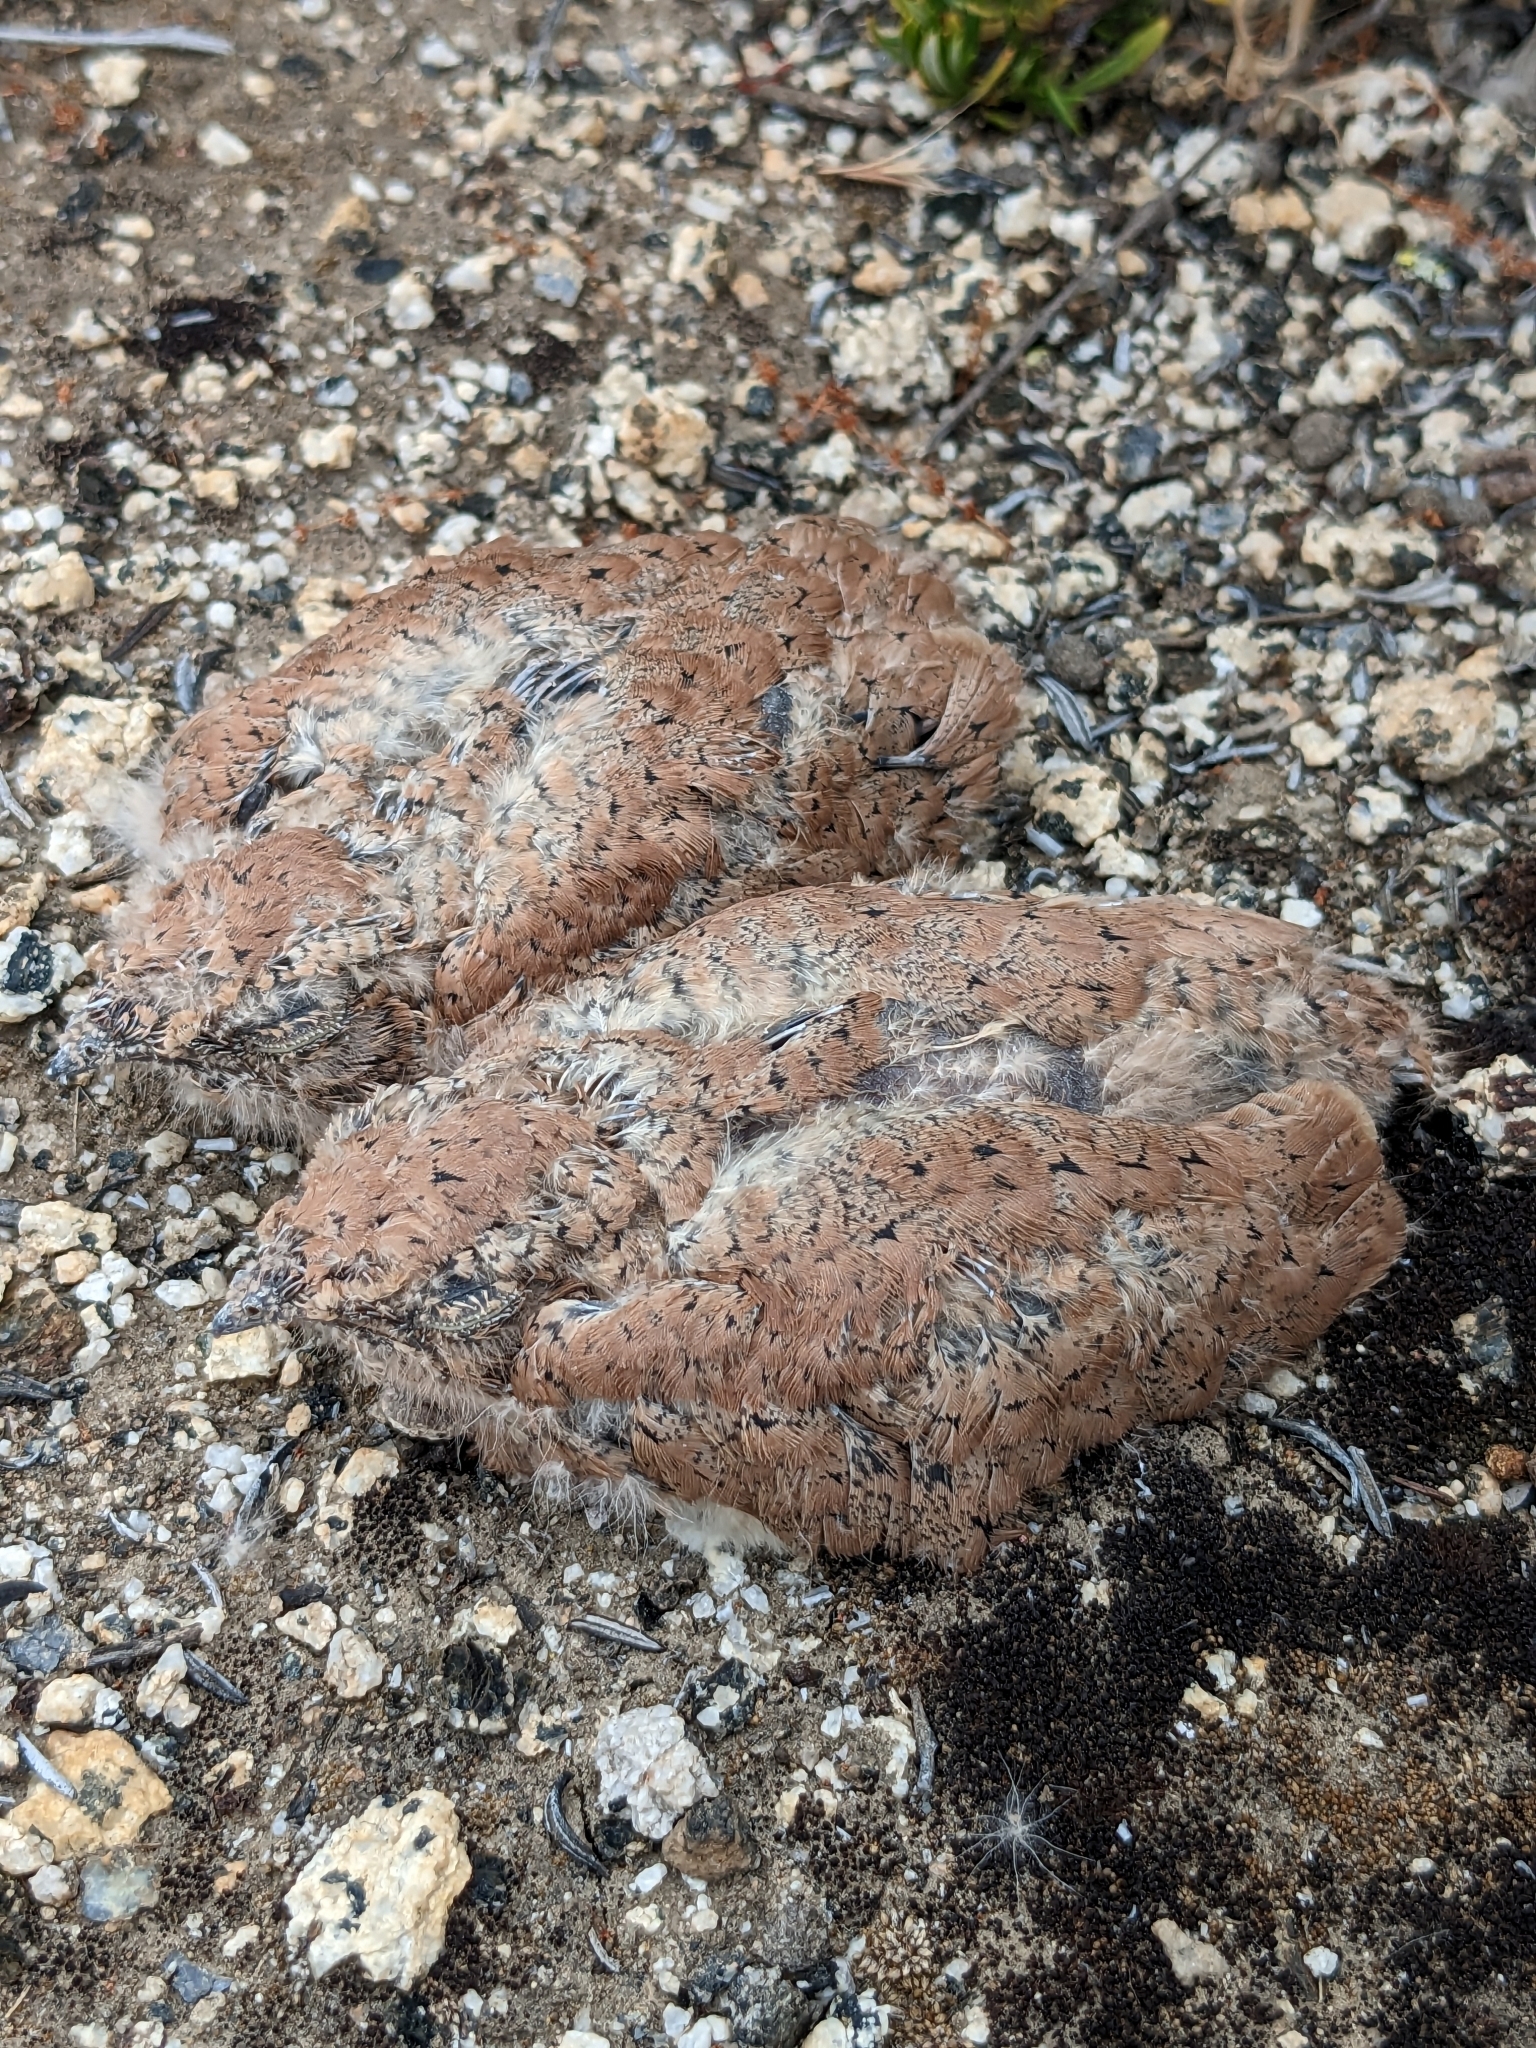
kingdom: Animalia
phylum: Chordata
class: Aves
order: Caprimulgiformes
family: Caprimulgidae
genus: Chordeiles
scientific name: Chordeiles acutipennis
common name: Lesser nighthawk
